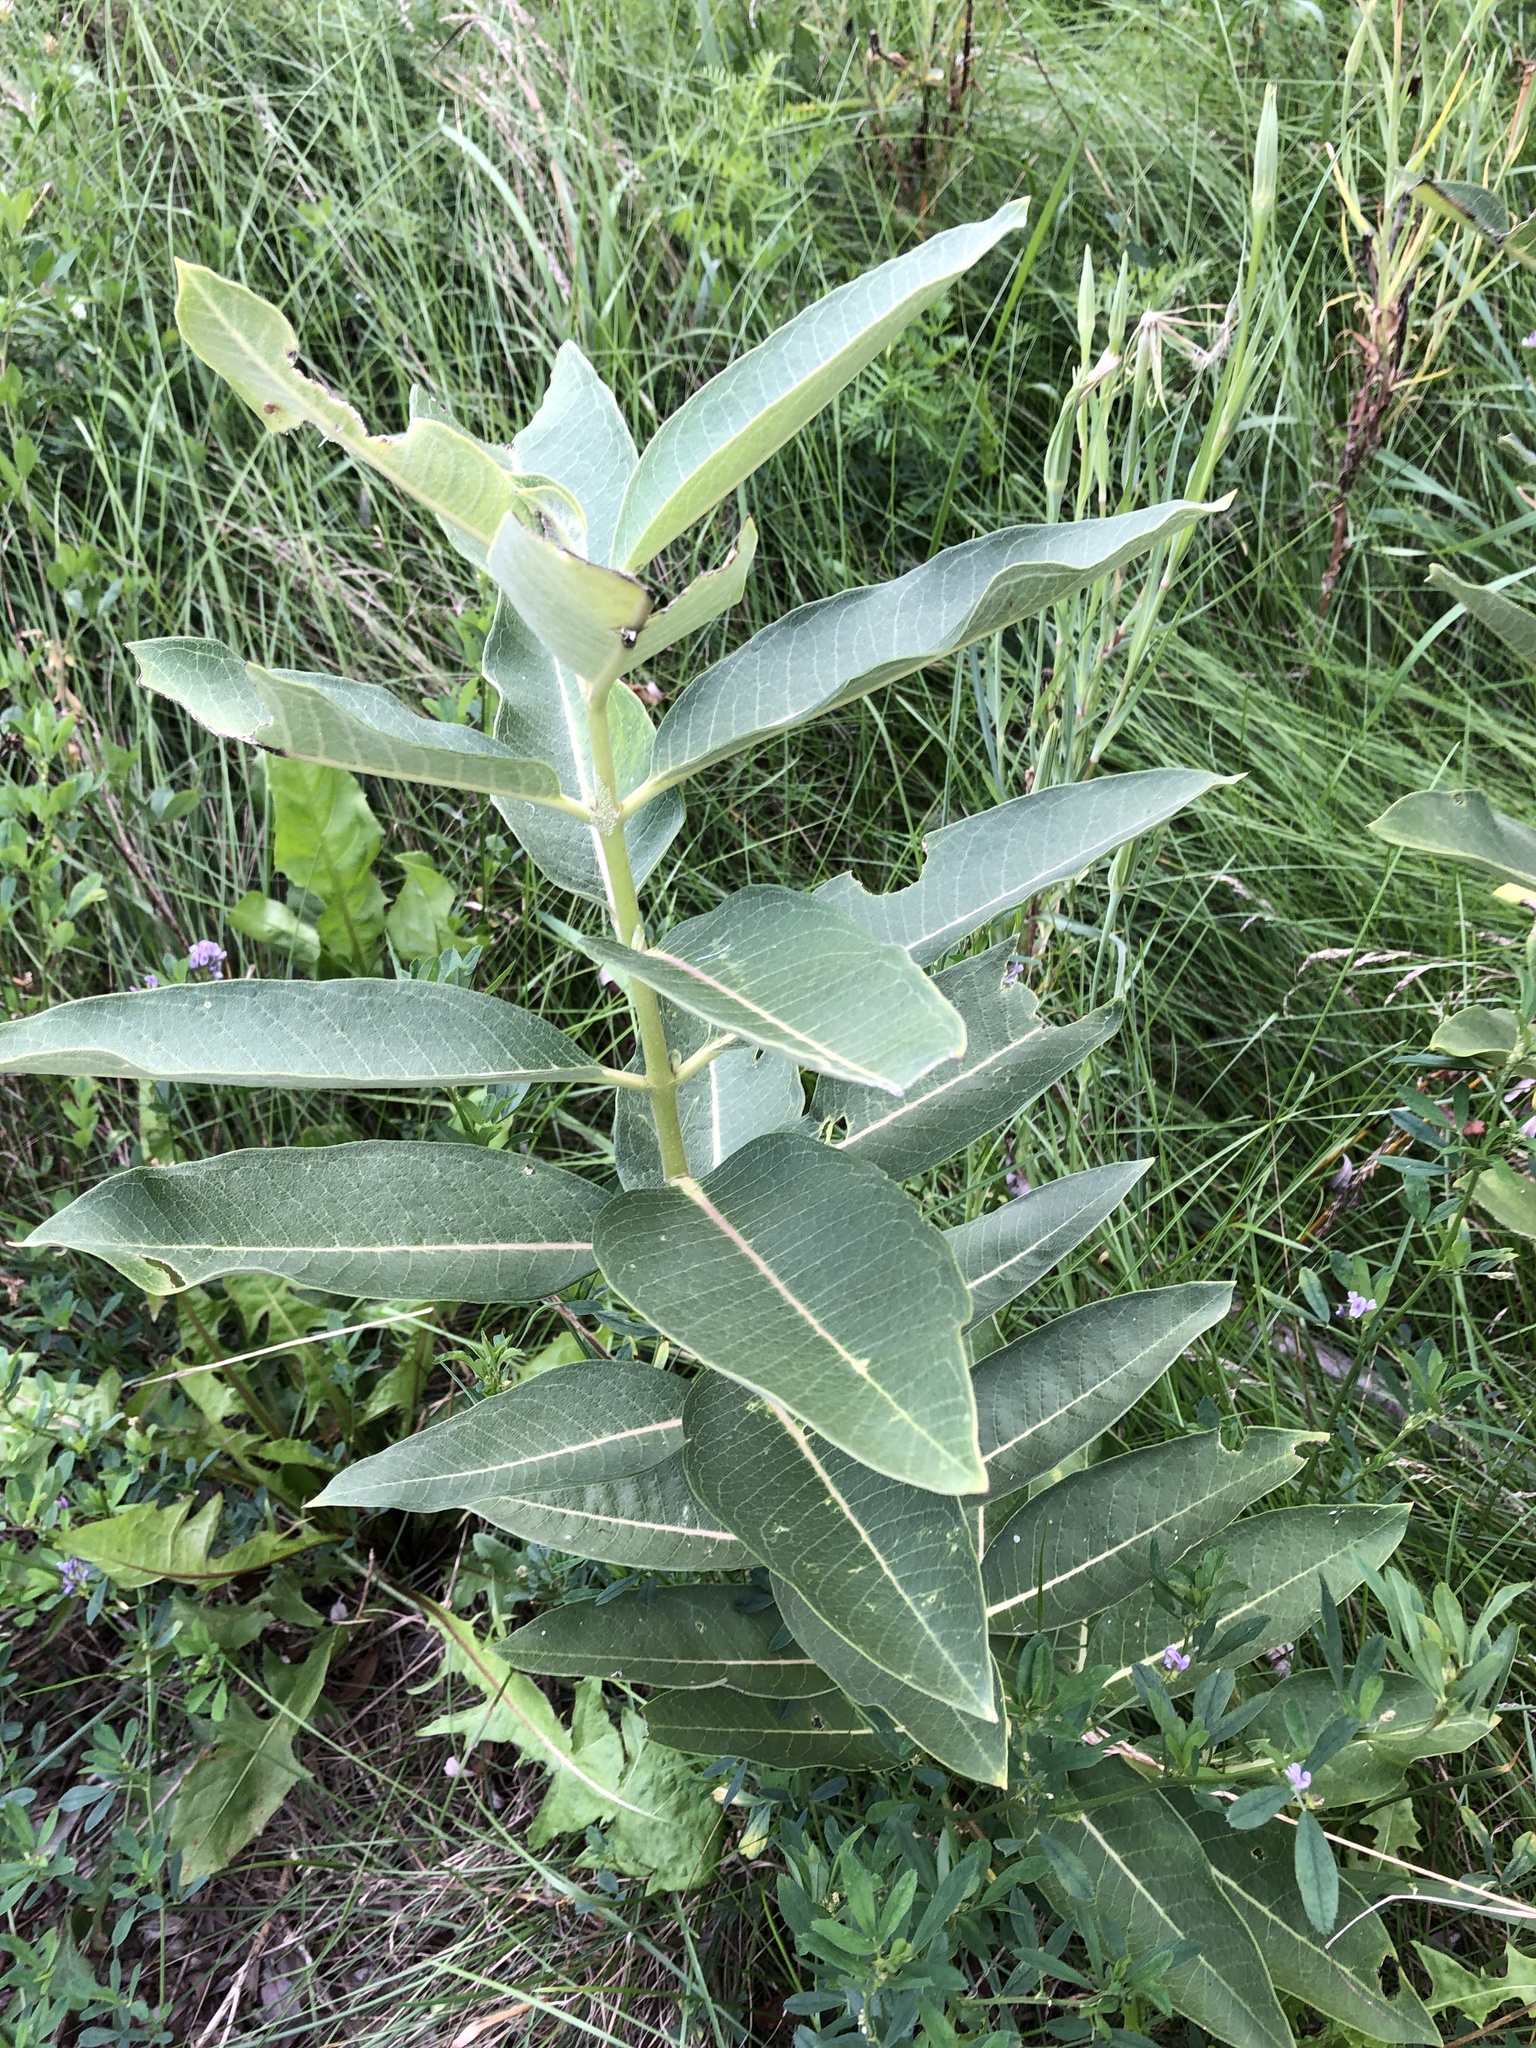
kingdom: Plantae
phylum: Tracheophyta
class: Magnoliopsida
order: Gentianales
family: Apocynaceae
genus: Asclepias
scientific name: Asclepias syriaca
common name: Common milkweed
